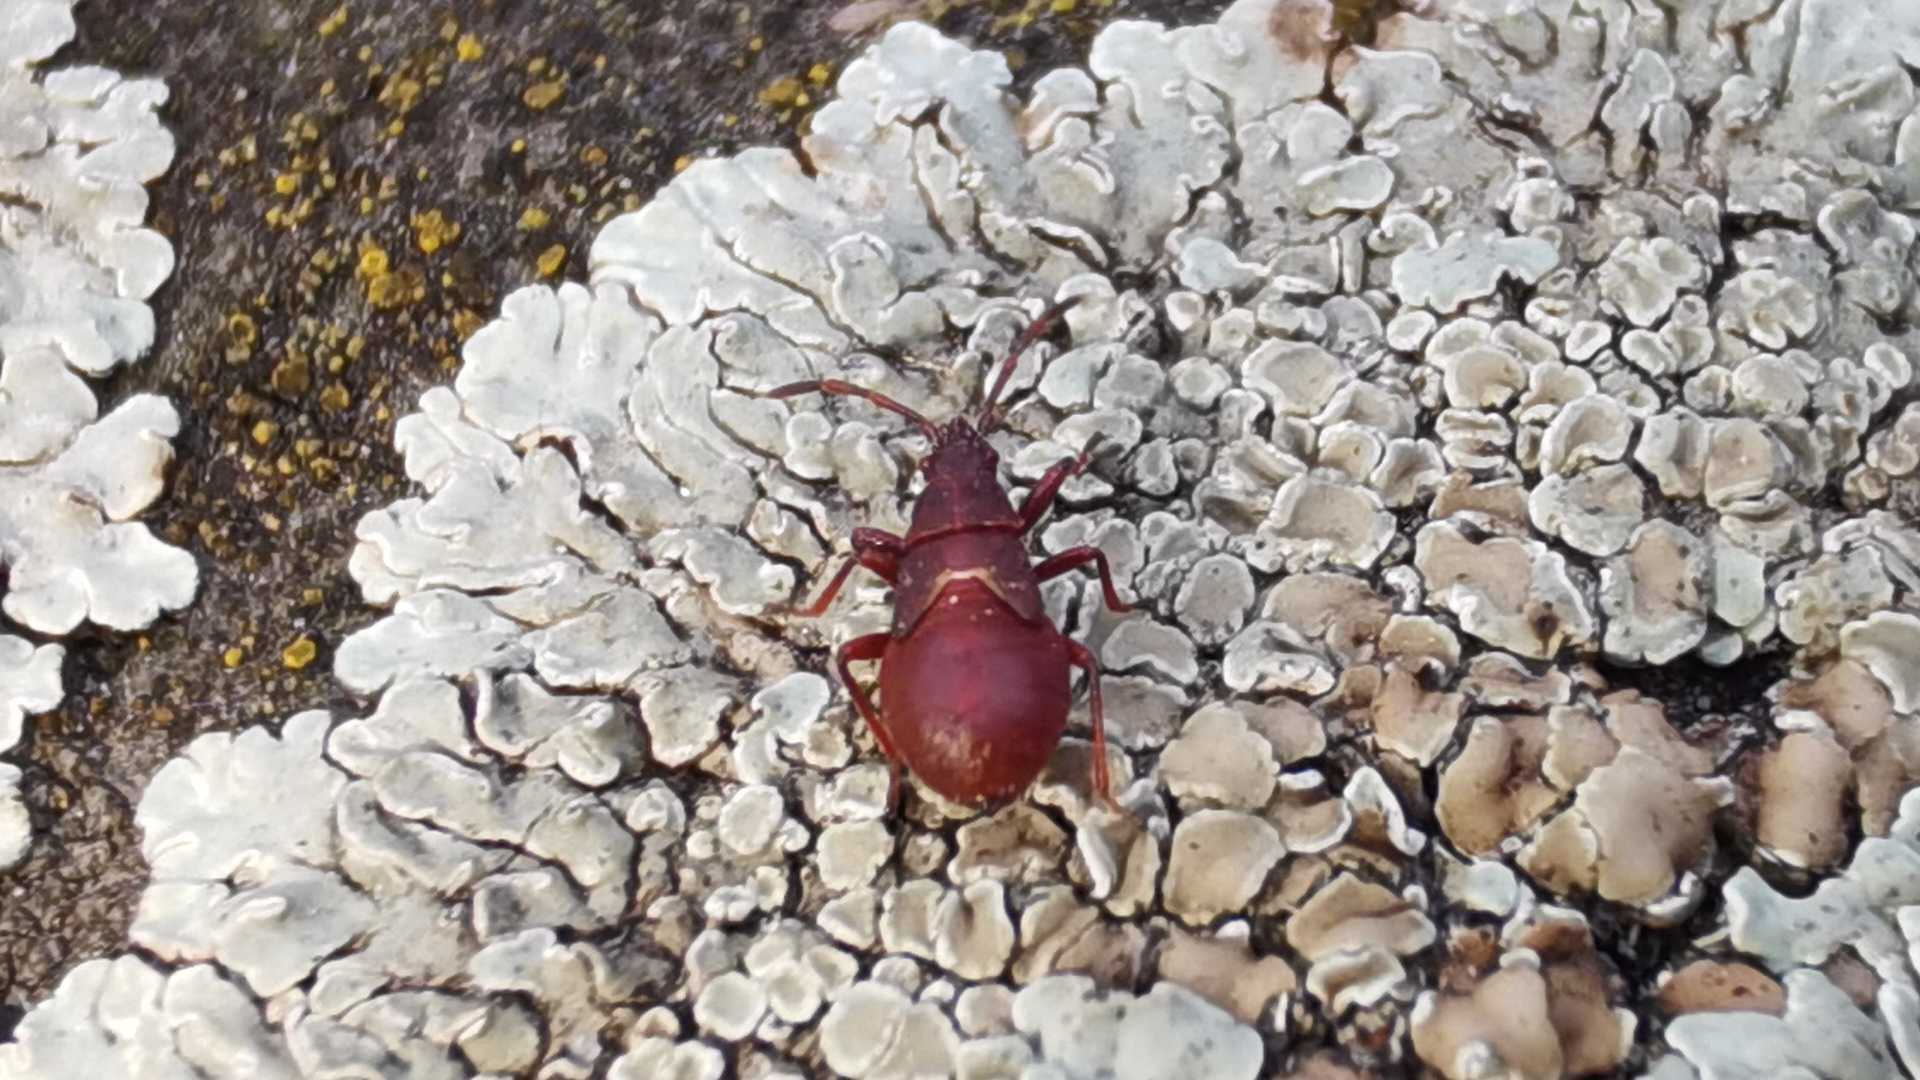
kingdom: Animalia
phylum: Arthropoda
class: Insecta
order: Hemiptera
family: Oxycarenidae
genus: Oxycarenus
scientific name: Oxycarenus lavaterae
